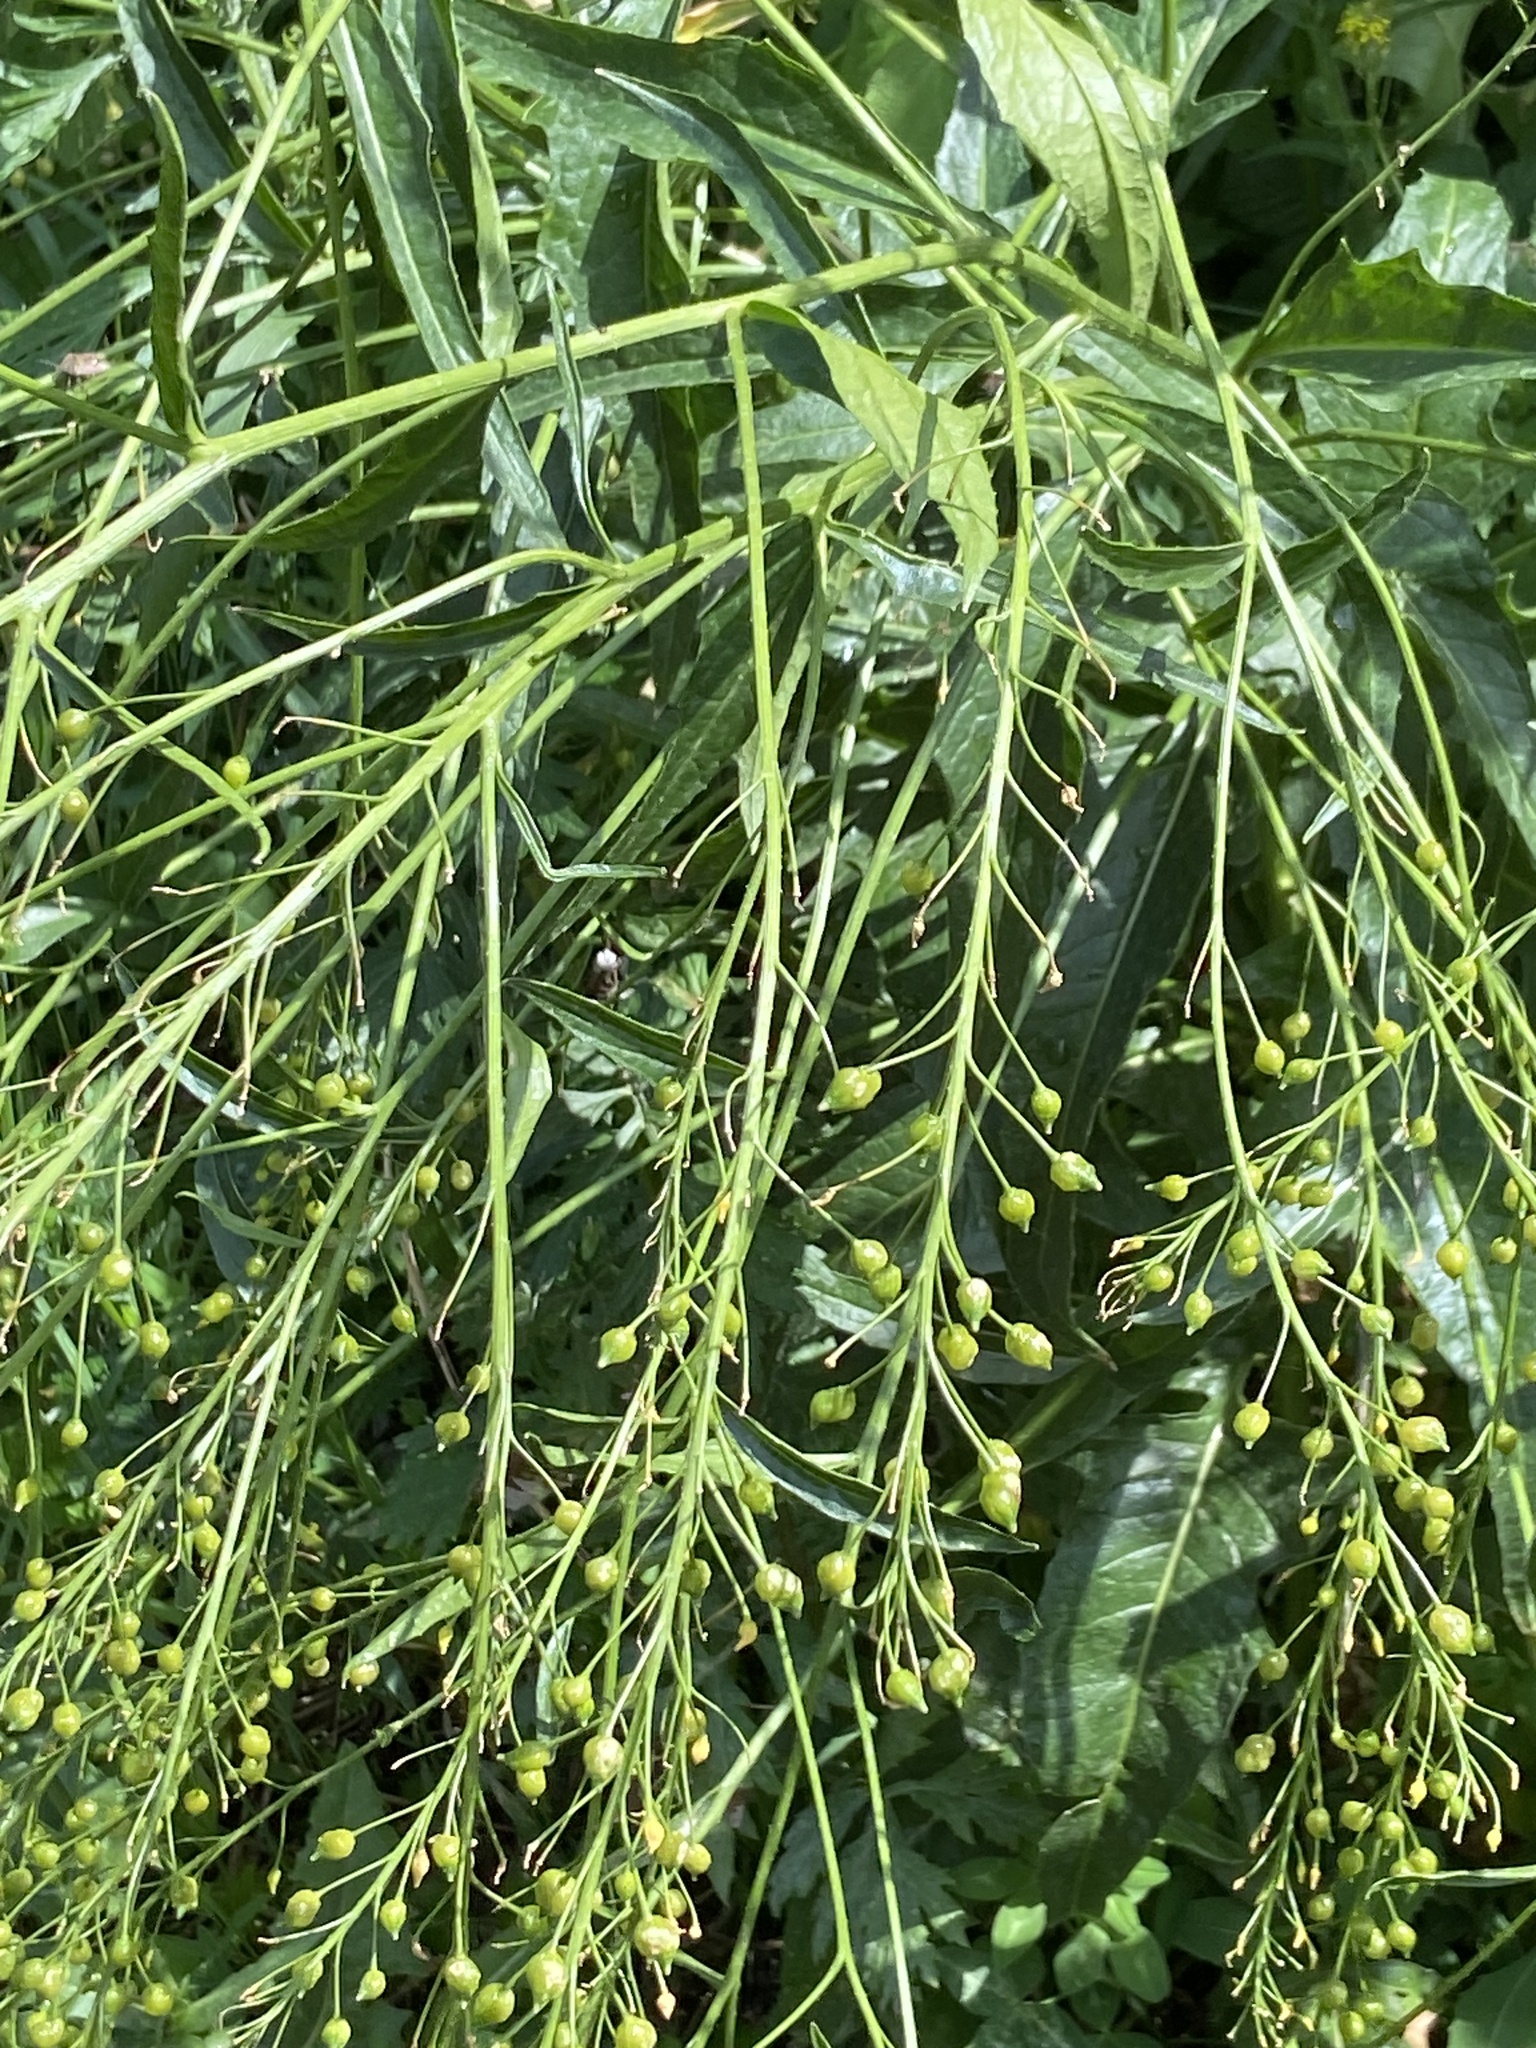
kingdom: Plantae
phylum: Tracheophyta
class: Magnoliopsida
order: Brassicales
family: Brassicaceae
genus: Bunias
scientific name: Bunias orientalis
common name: Warty-cabbage
